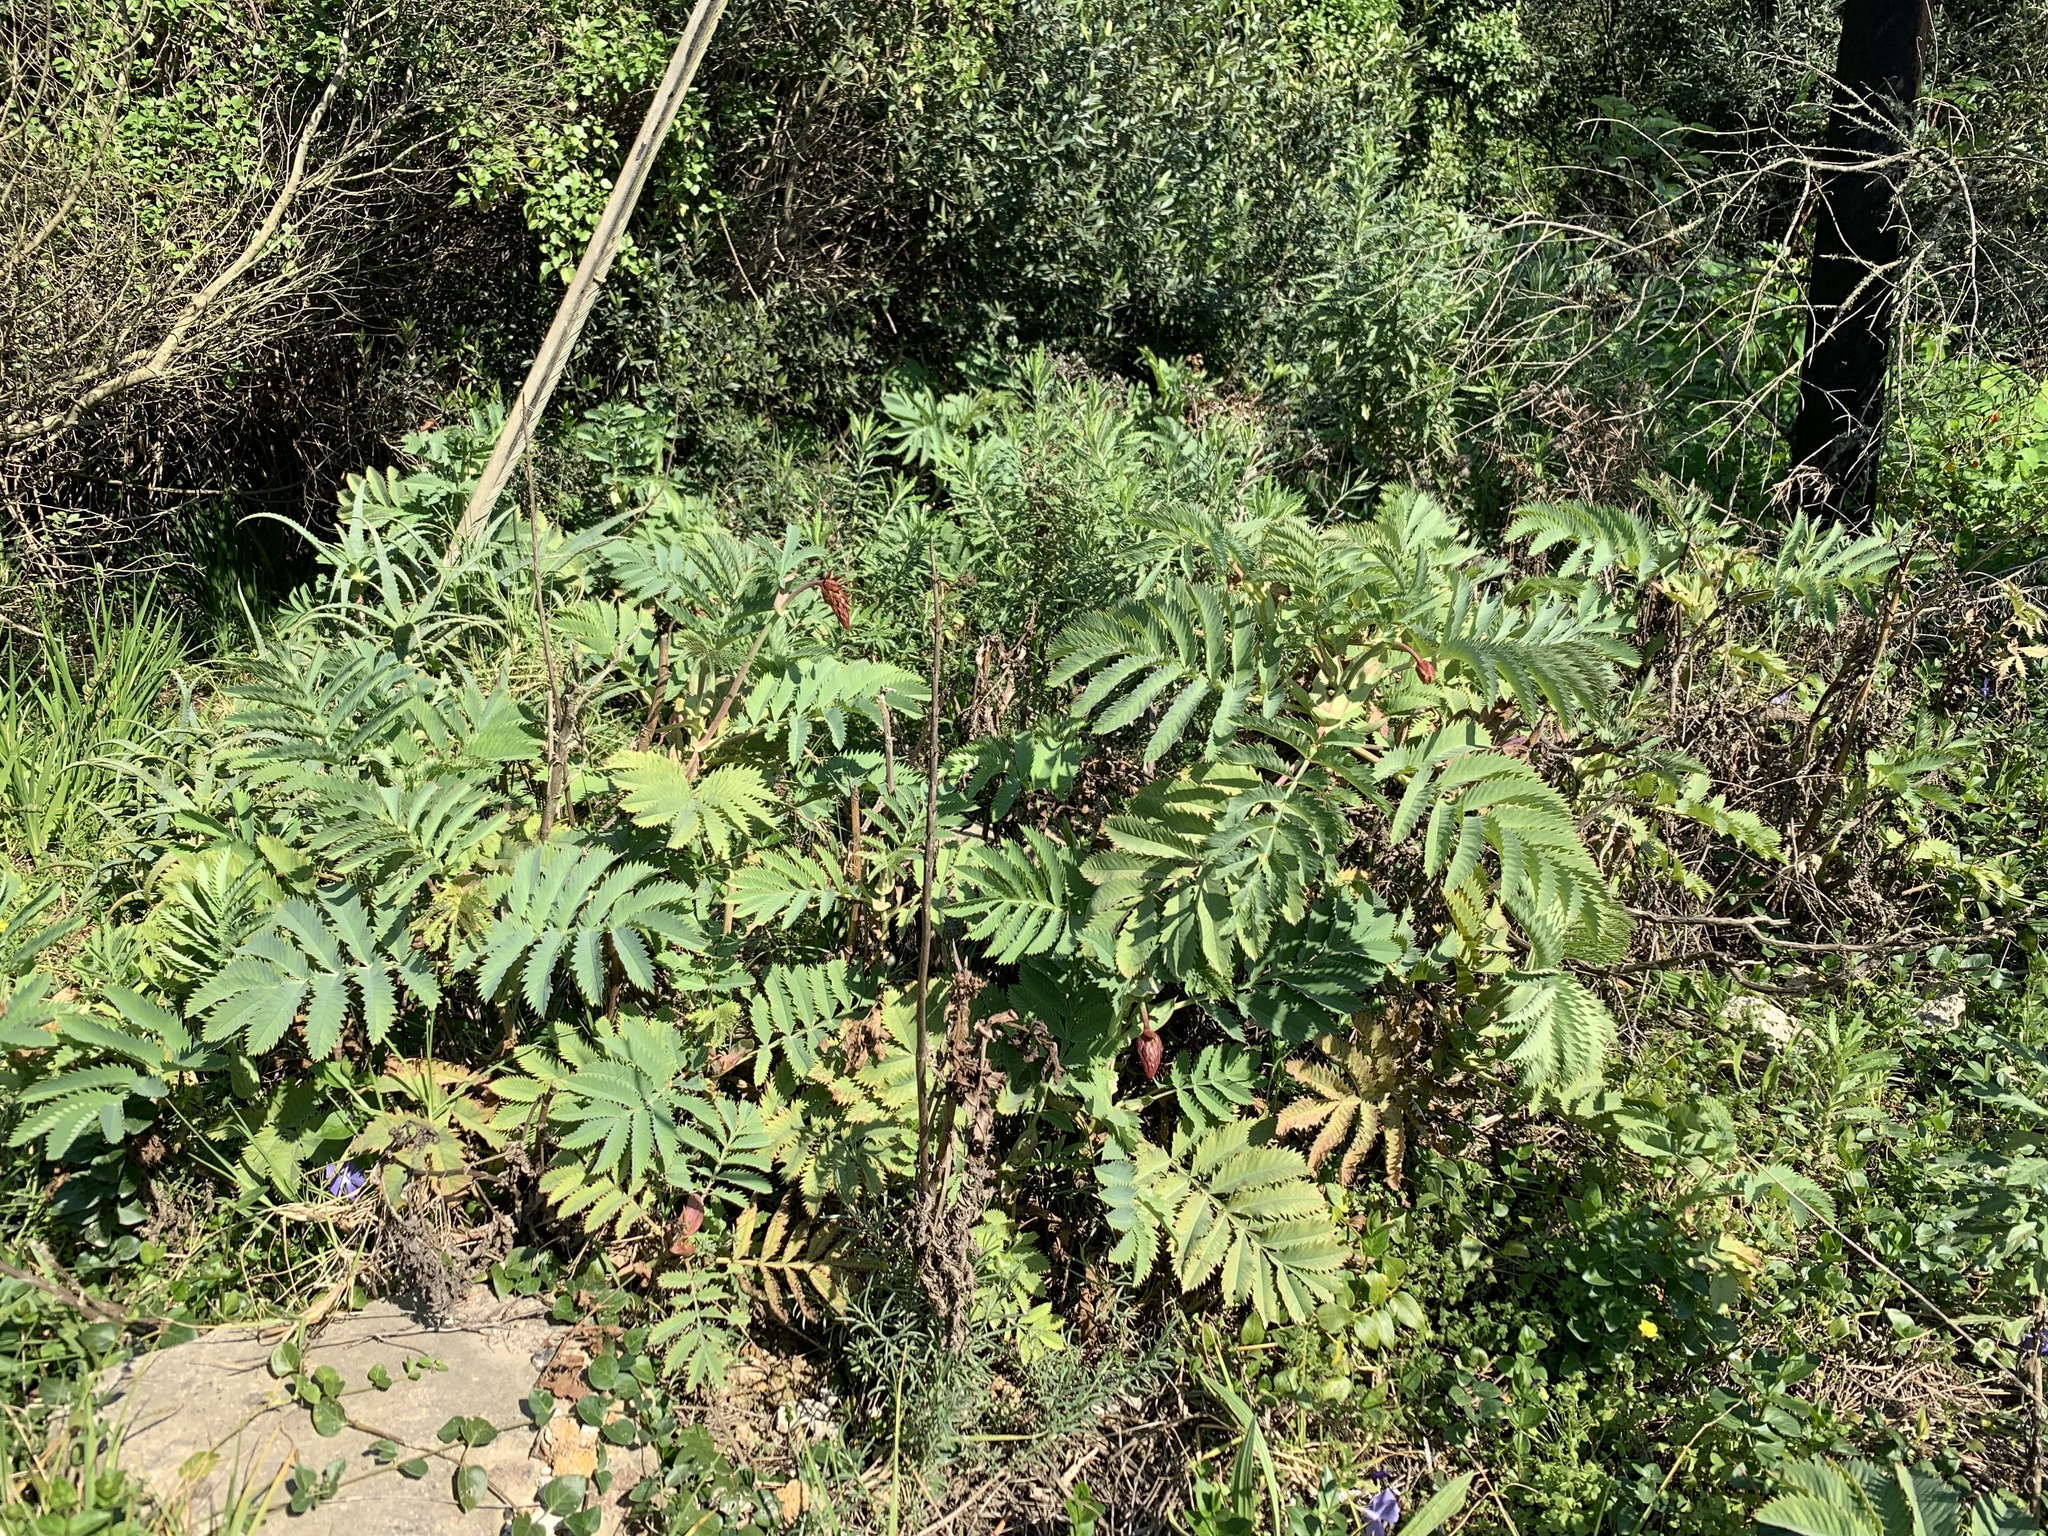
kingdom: Plantae
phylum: Tracheophyta
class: Magnoliopsida
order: Geraniales
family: Melianthaceae
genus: Melianthus
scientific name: Melianthus major
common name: Honey-flower
